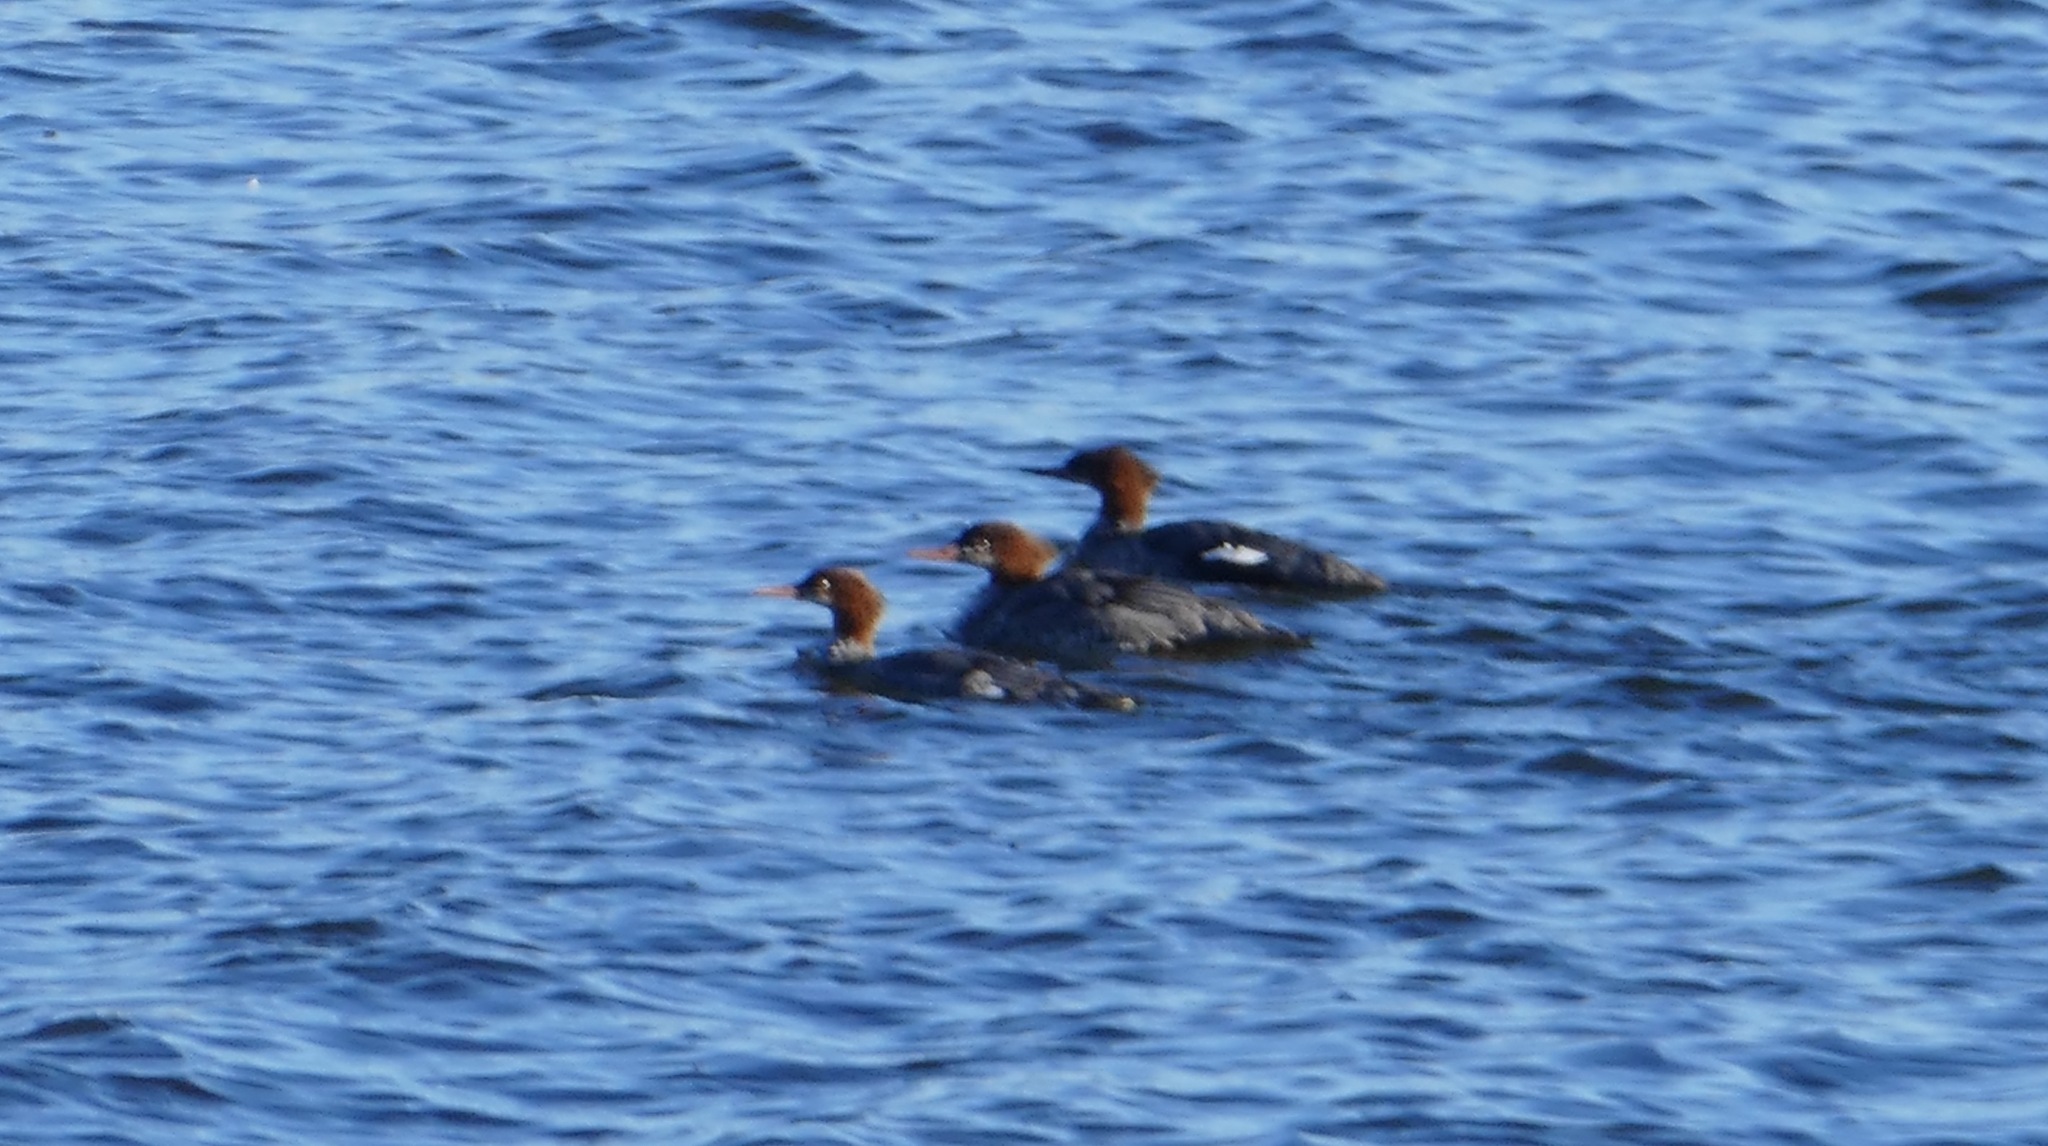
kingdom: Animalia
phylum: Chordata
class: Aves
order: Anseriformes
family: Anatidae
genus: Mergus
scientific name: Mergus merganser
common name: Common merganser
